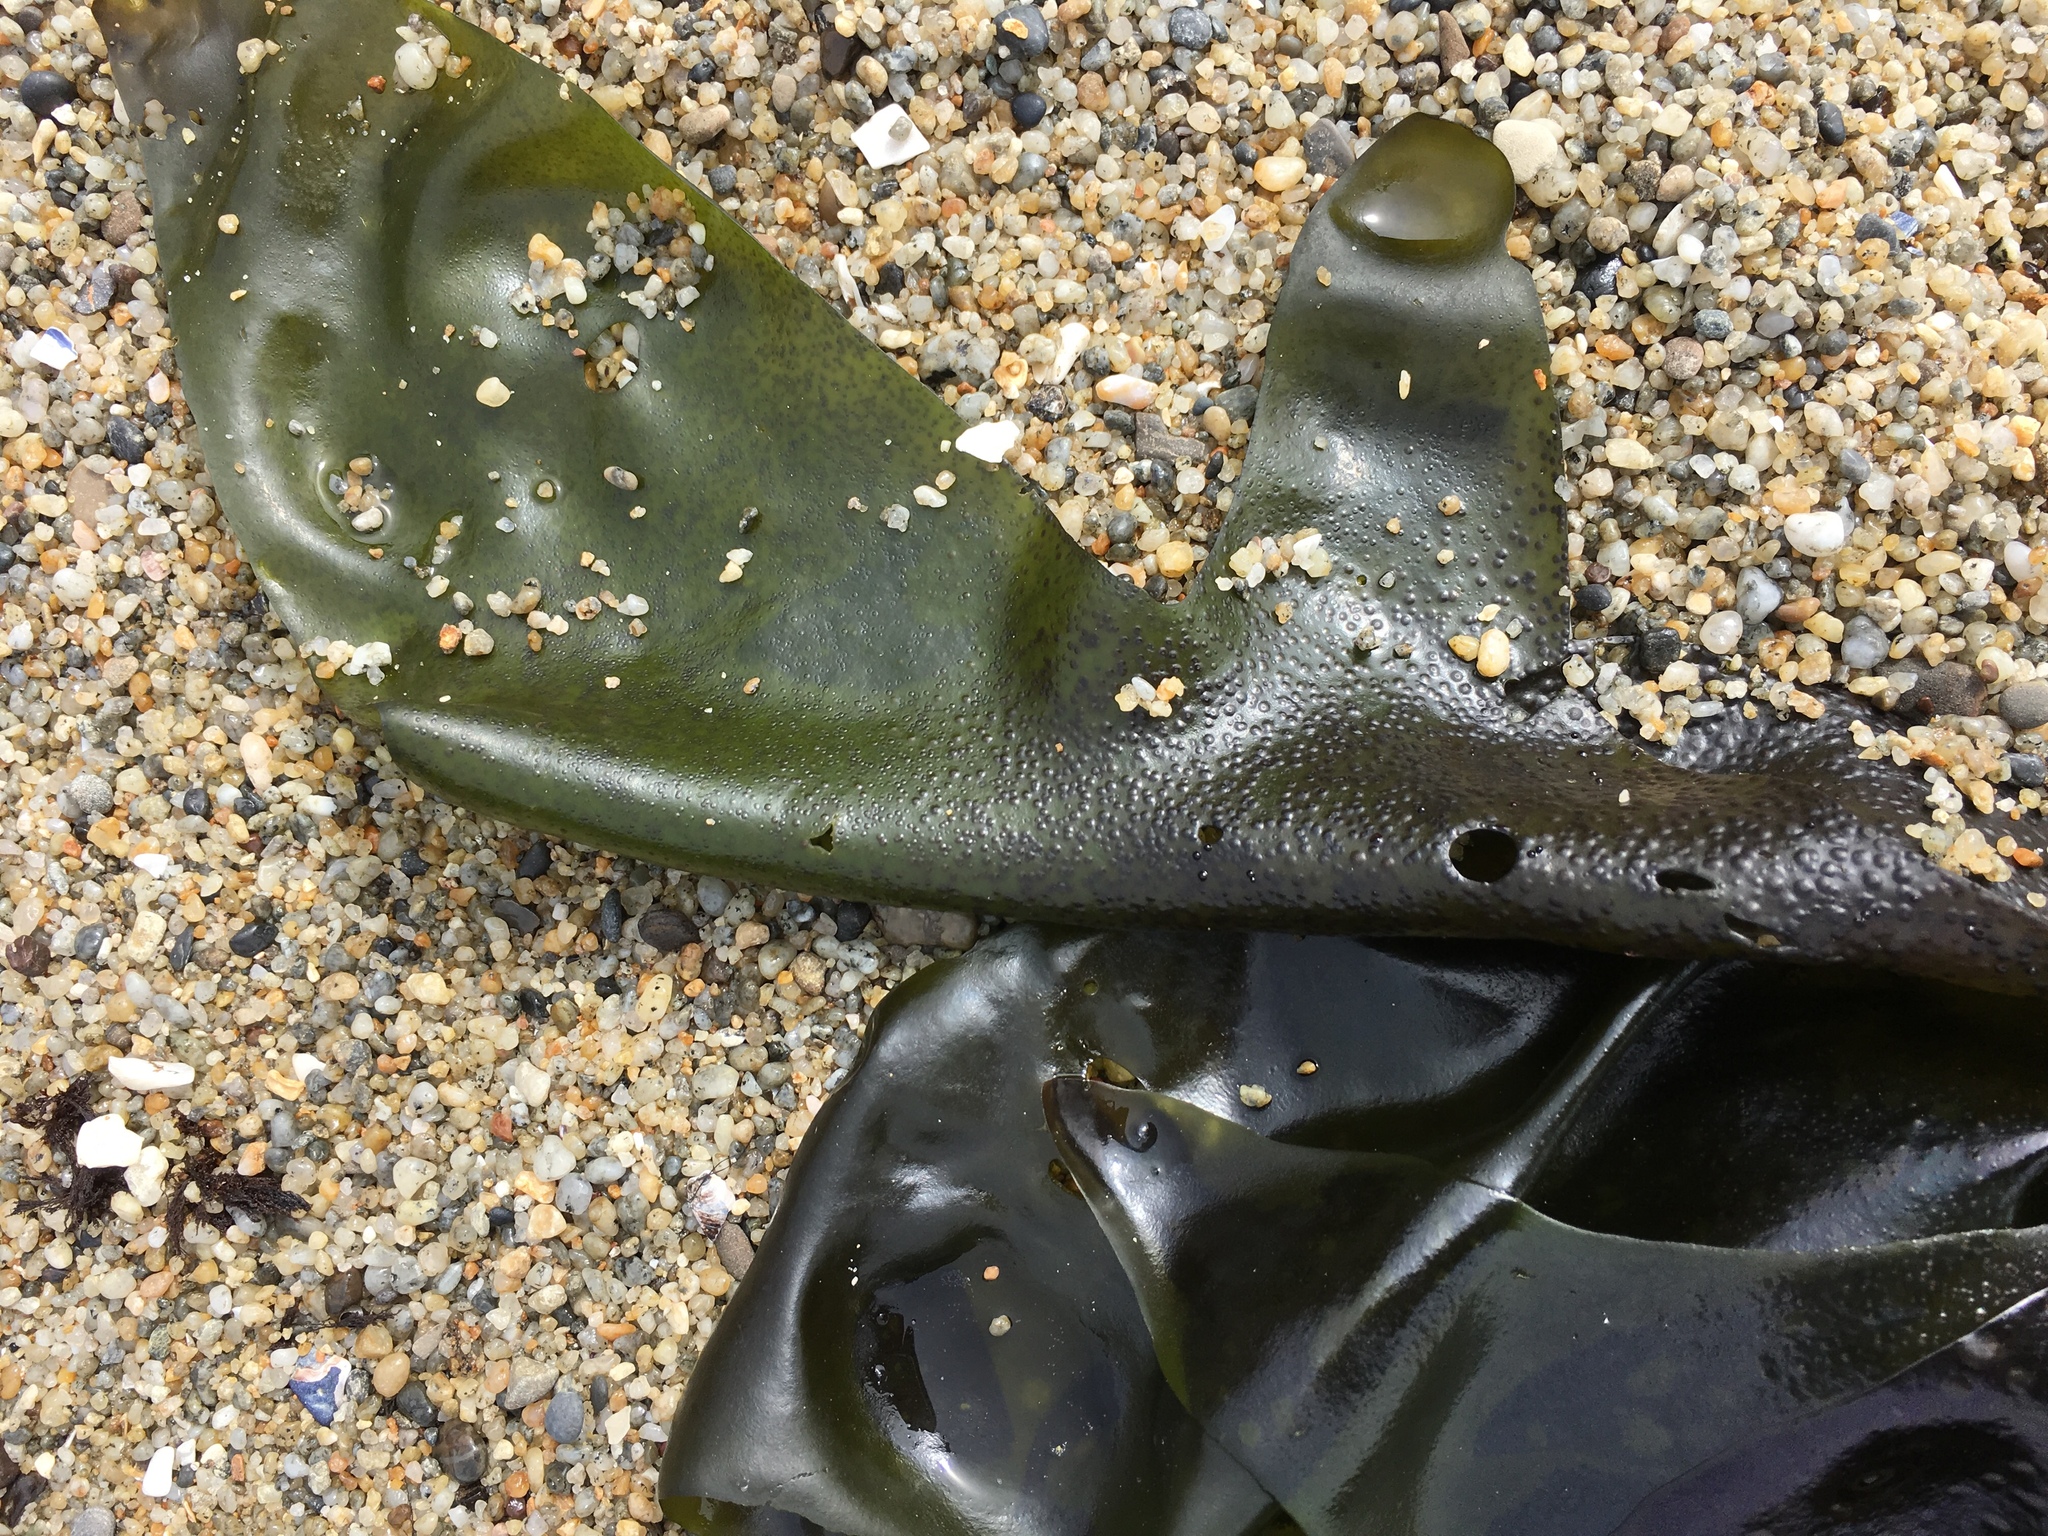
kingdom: Plantae
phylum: Rhodophyta
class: Florideophyceae
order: Gigartinales
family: Gigartinaceae
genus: Mazzaella
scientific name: Mazzaella flaccida
